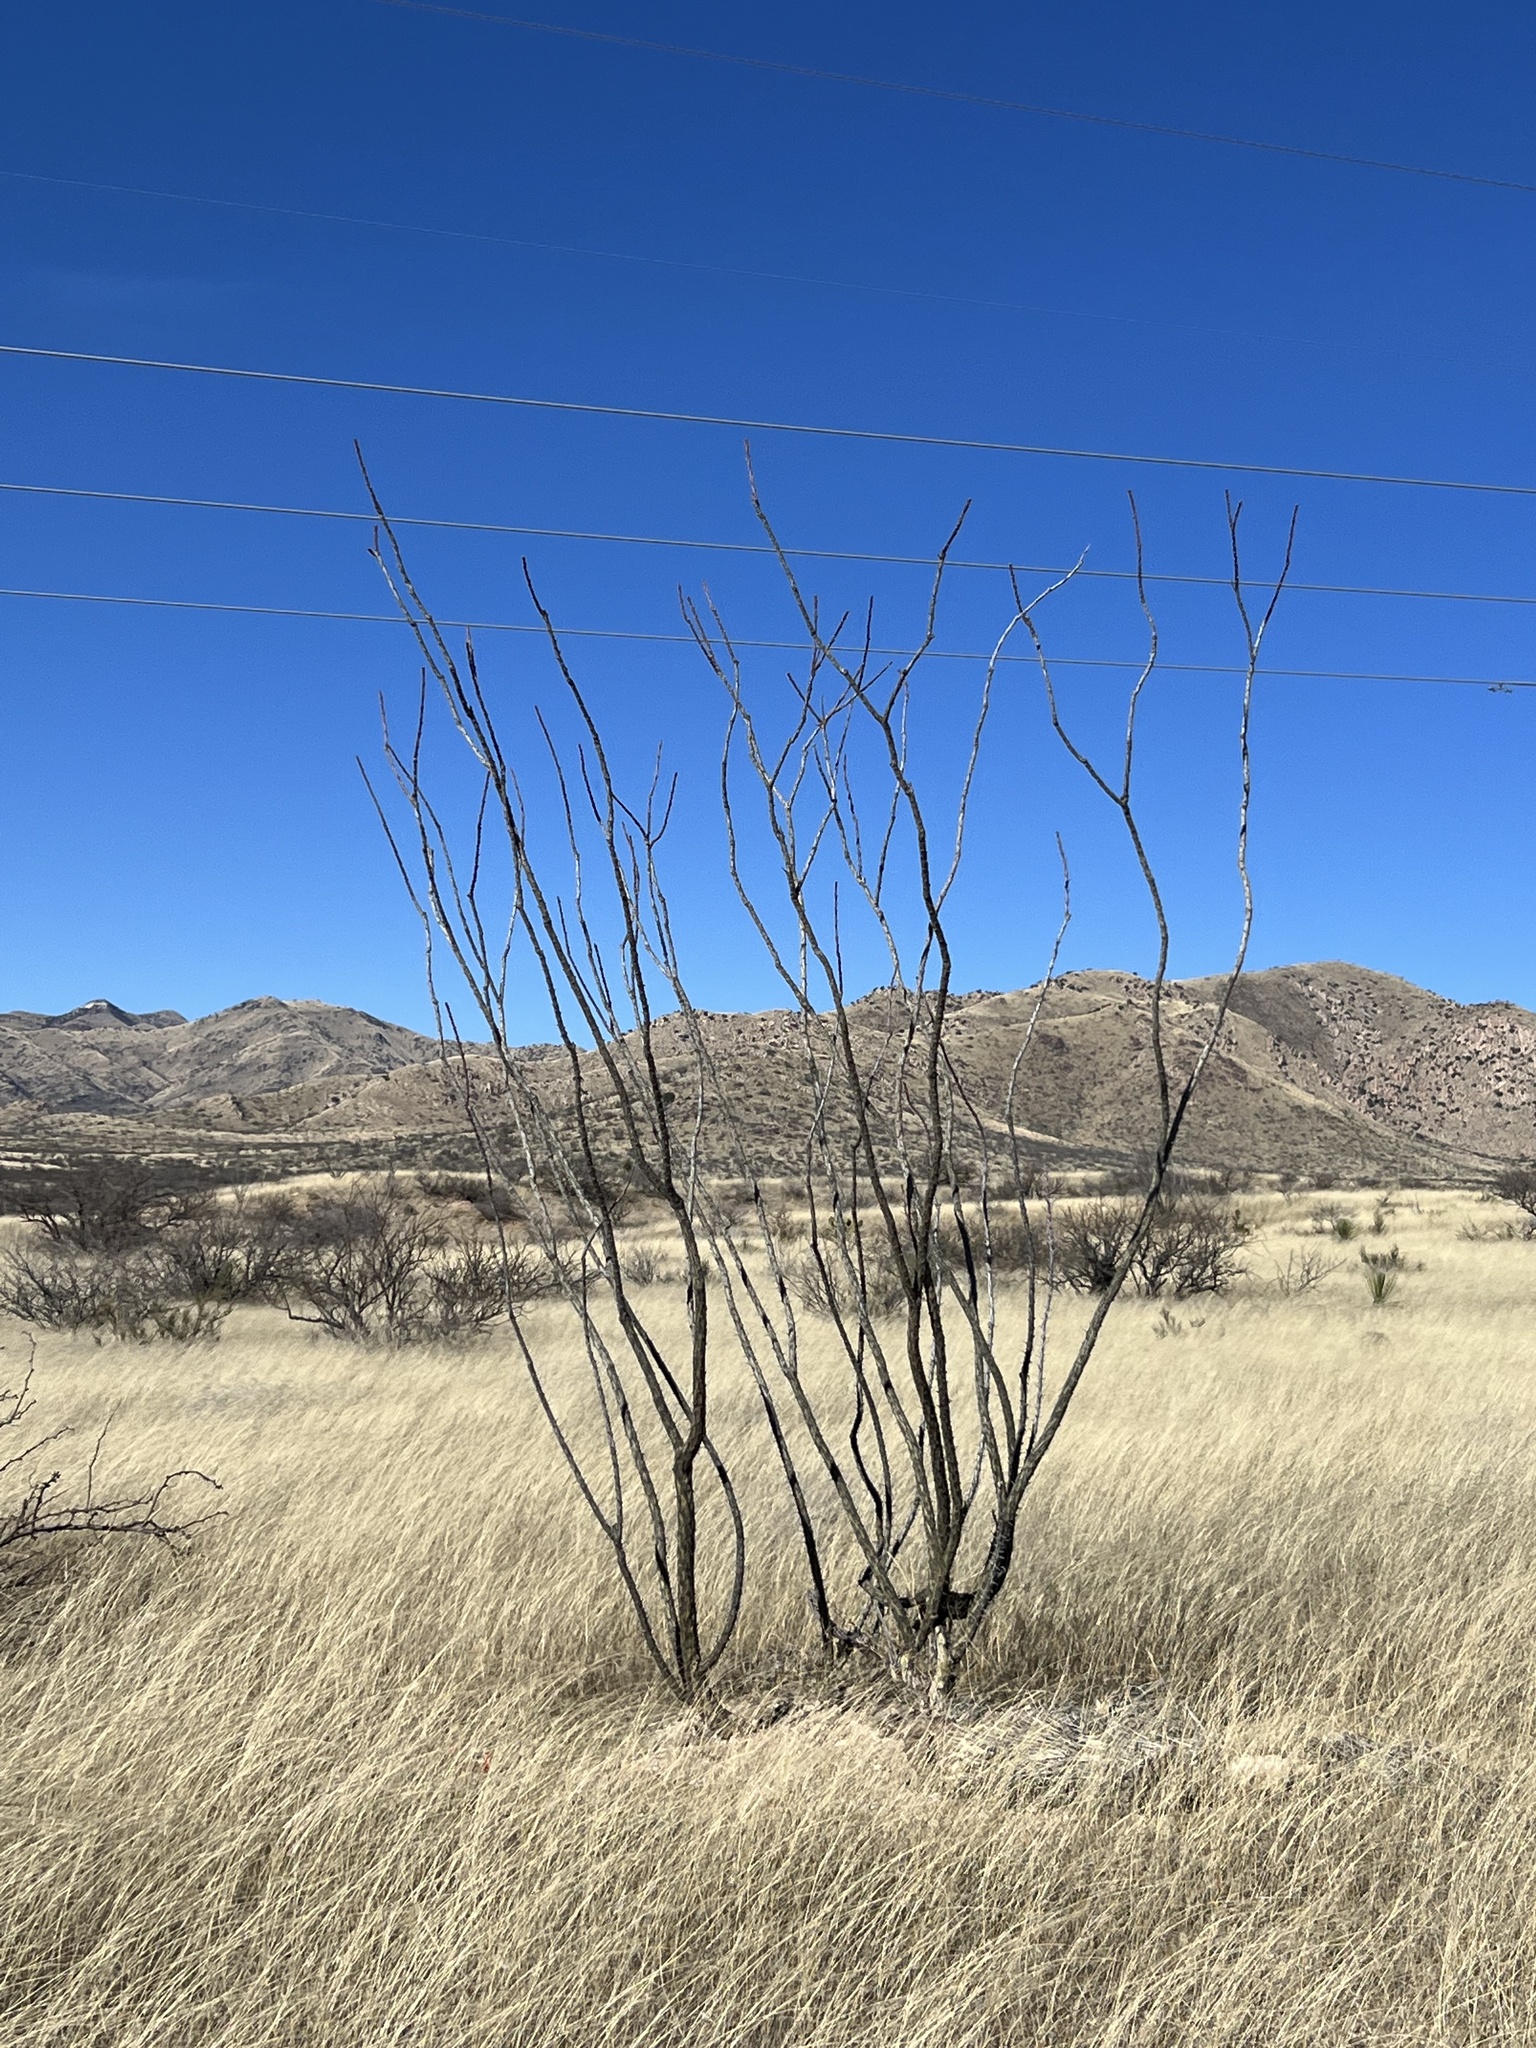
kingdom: Plantae
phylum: Tracheophyta
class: Magnoliopsida
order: Ericales
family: Fouquieriaceae
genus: Fouquieria
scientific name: Fouquieria splendens
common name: Vine-cactus
